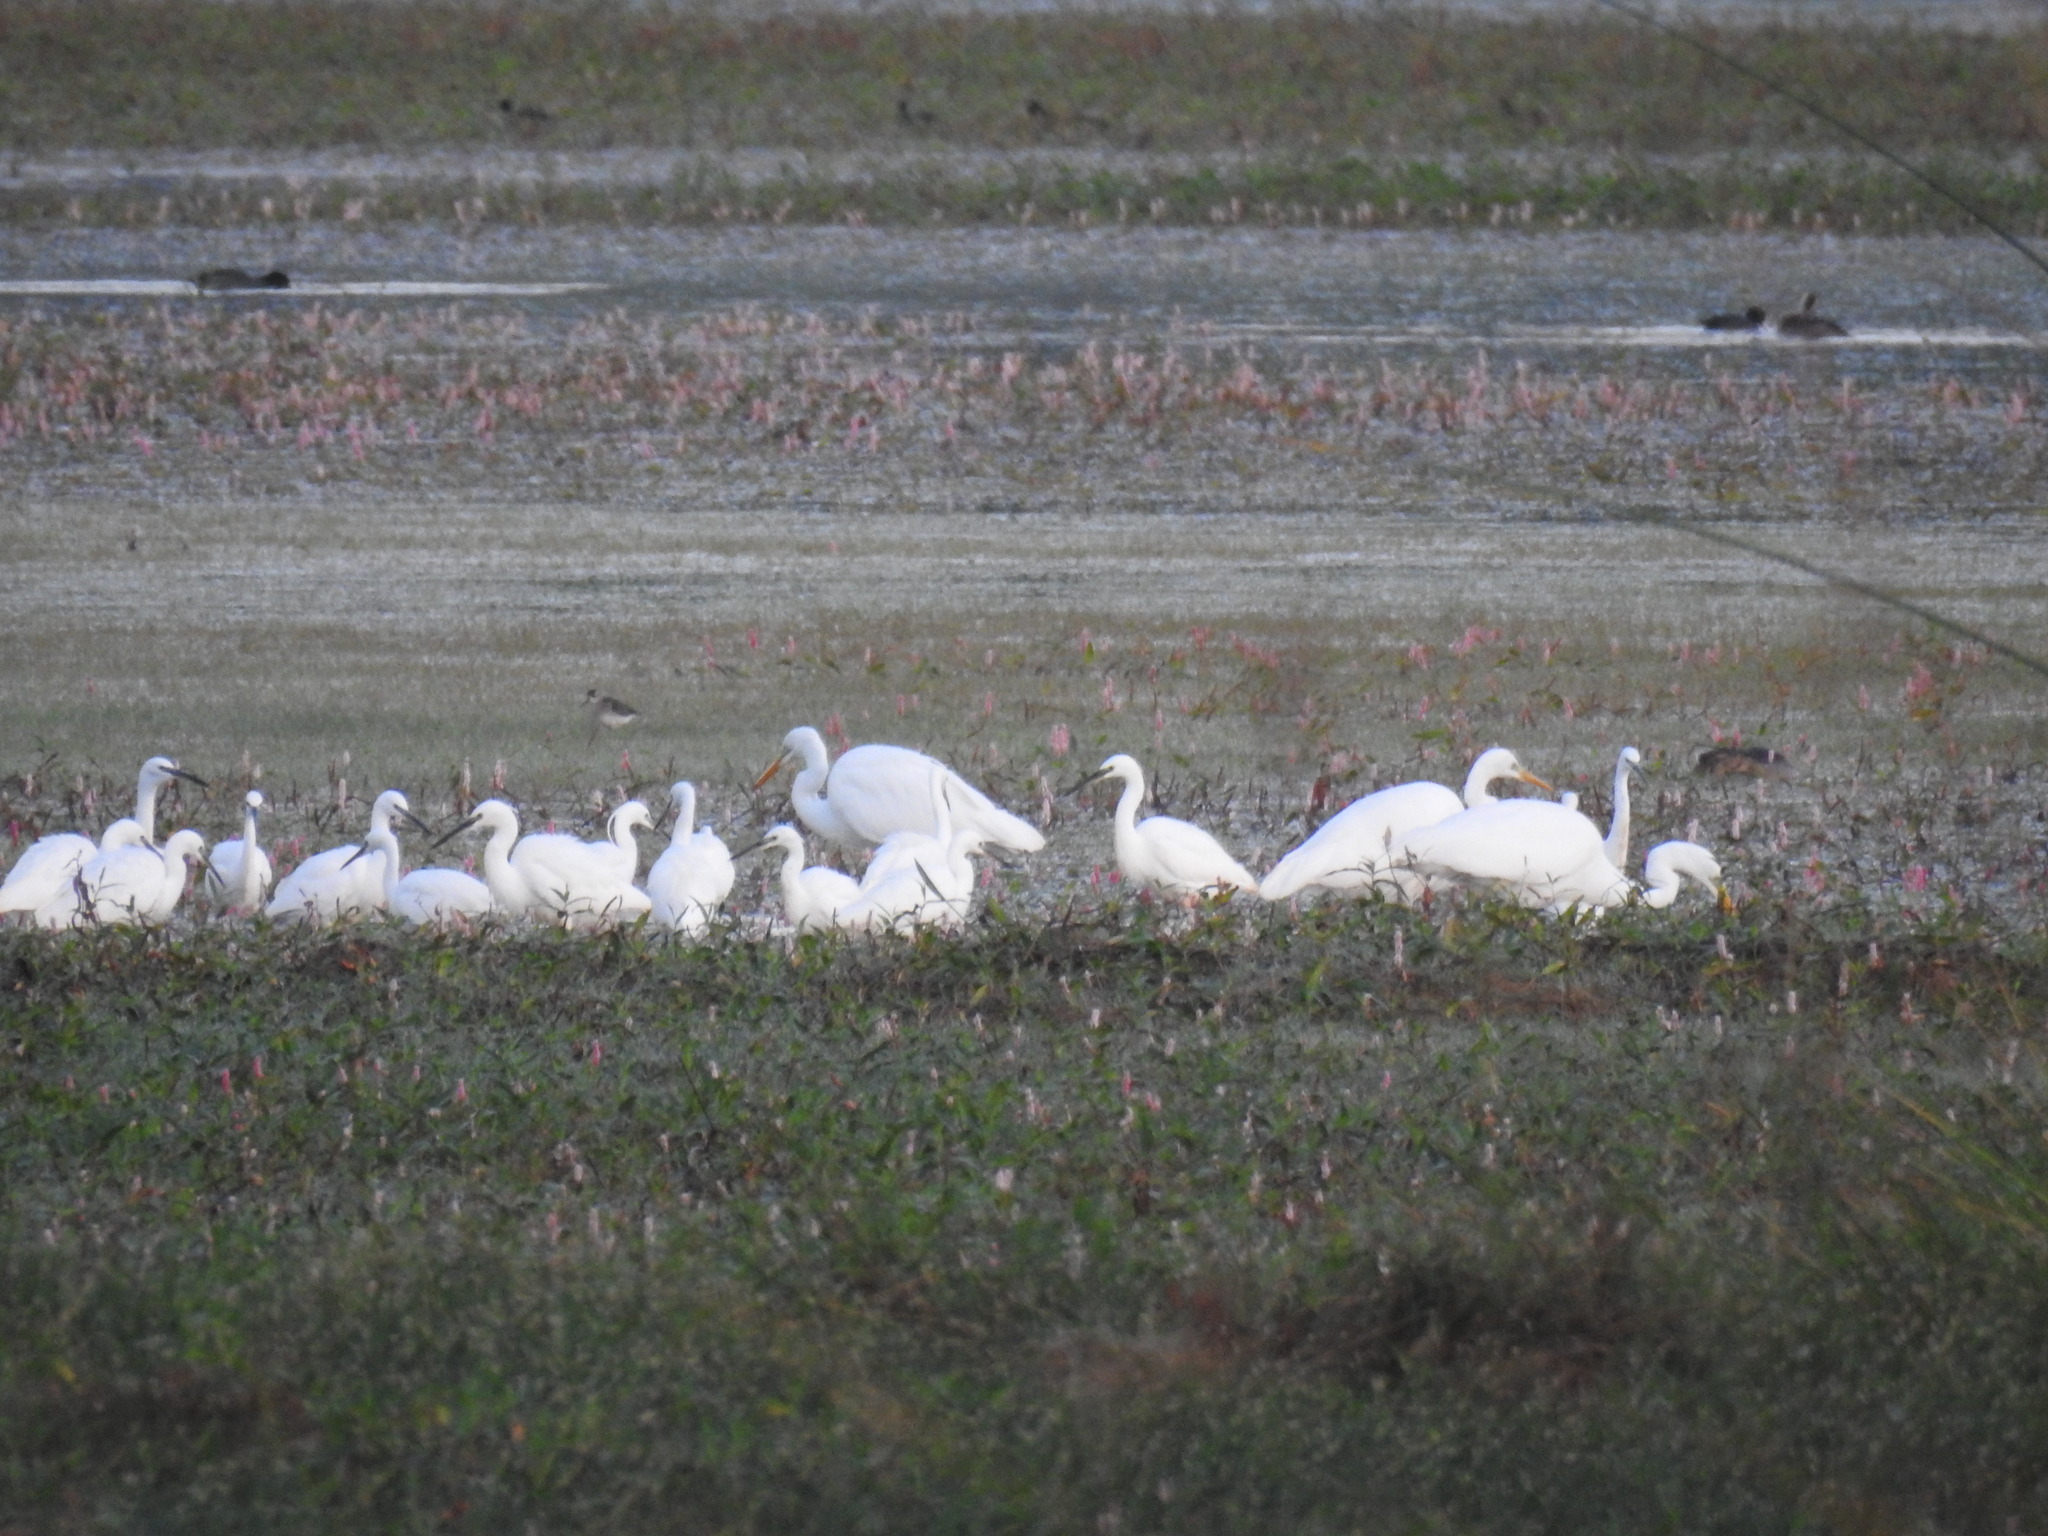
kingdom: Animalia
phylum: Chordata
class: Aves
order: Pelecaniformes
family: Ardeidae
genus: Egretta
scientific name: Egretta garzetta
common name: Little egret
